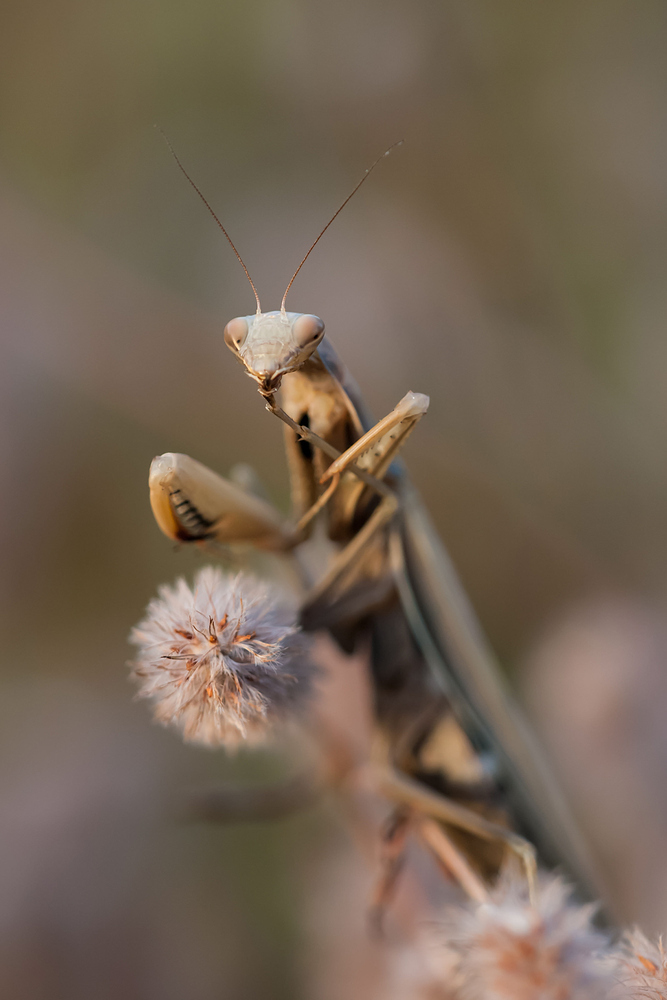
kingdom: Animalia
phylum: Arthropoda
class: Insecta
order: Mantodea
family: Mantidae
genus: Mantis
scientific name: Mantis religiosa
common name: Praying mantis
